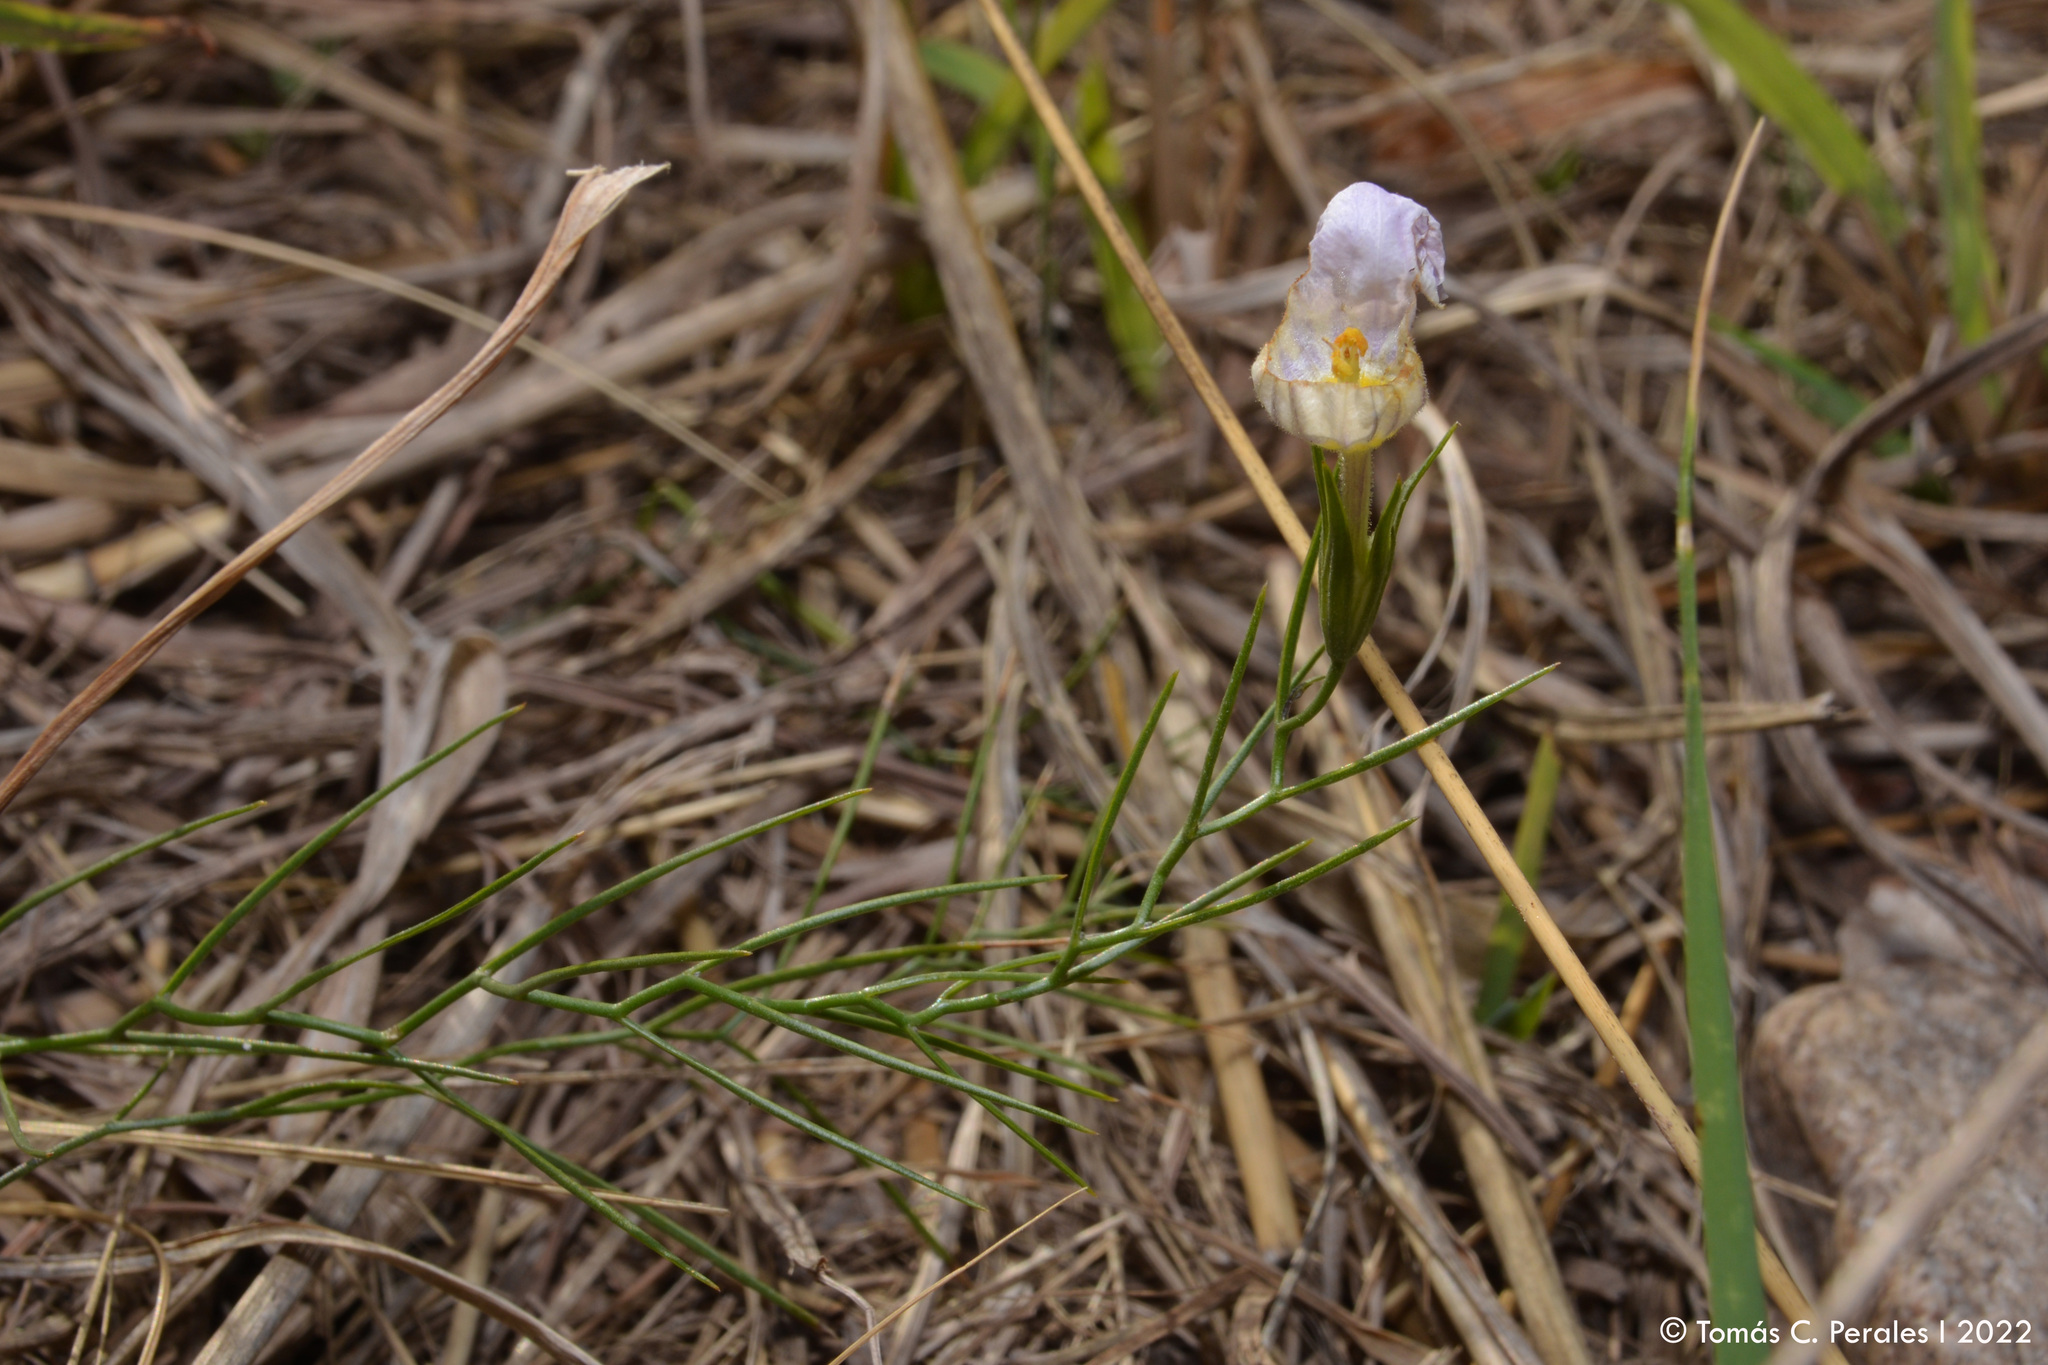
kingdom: Plantae
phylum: Tracheophyta
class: Magnoliopsida
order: Solanales
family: Solanaceae
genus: Nierembergia
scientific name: Nierembergia rigida
